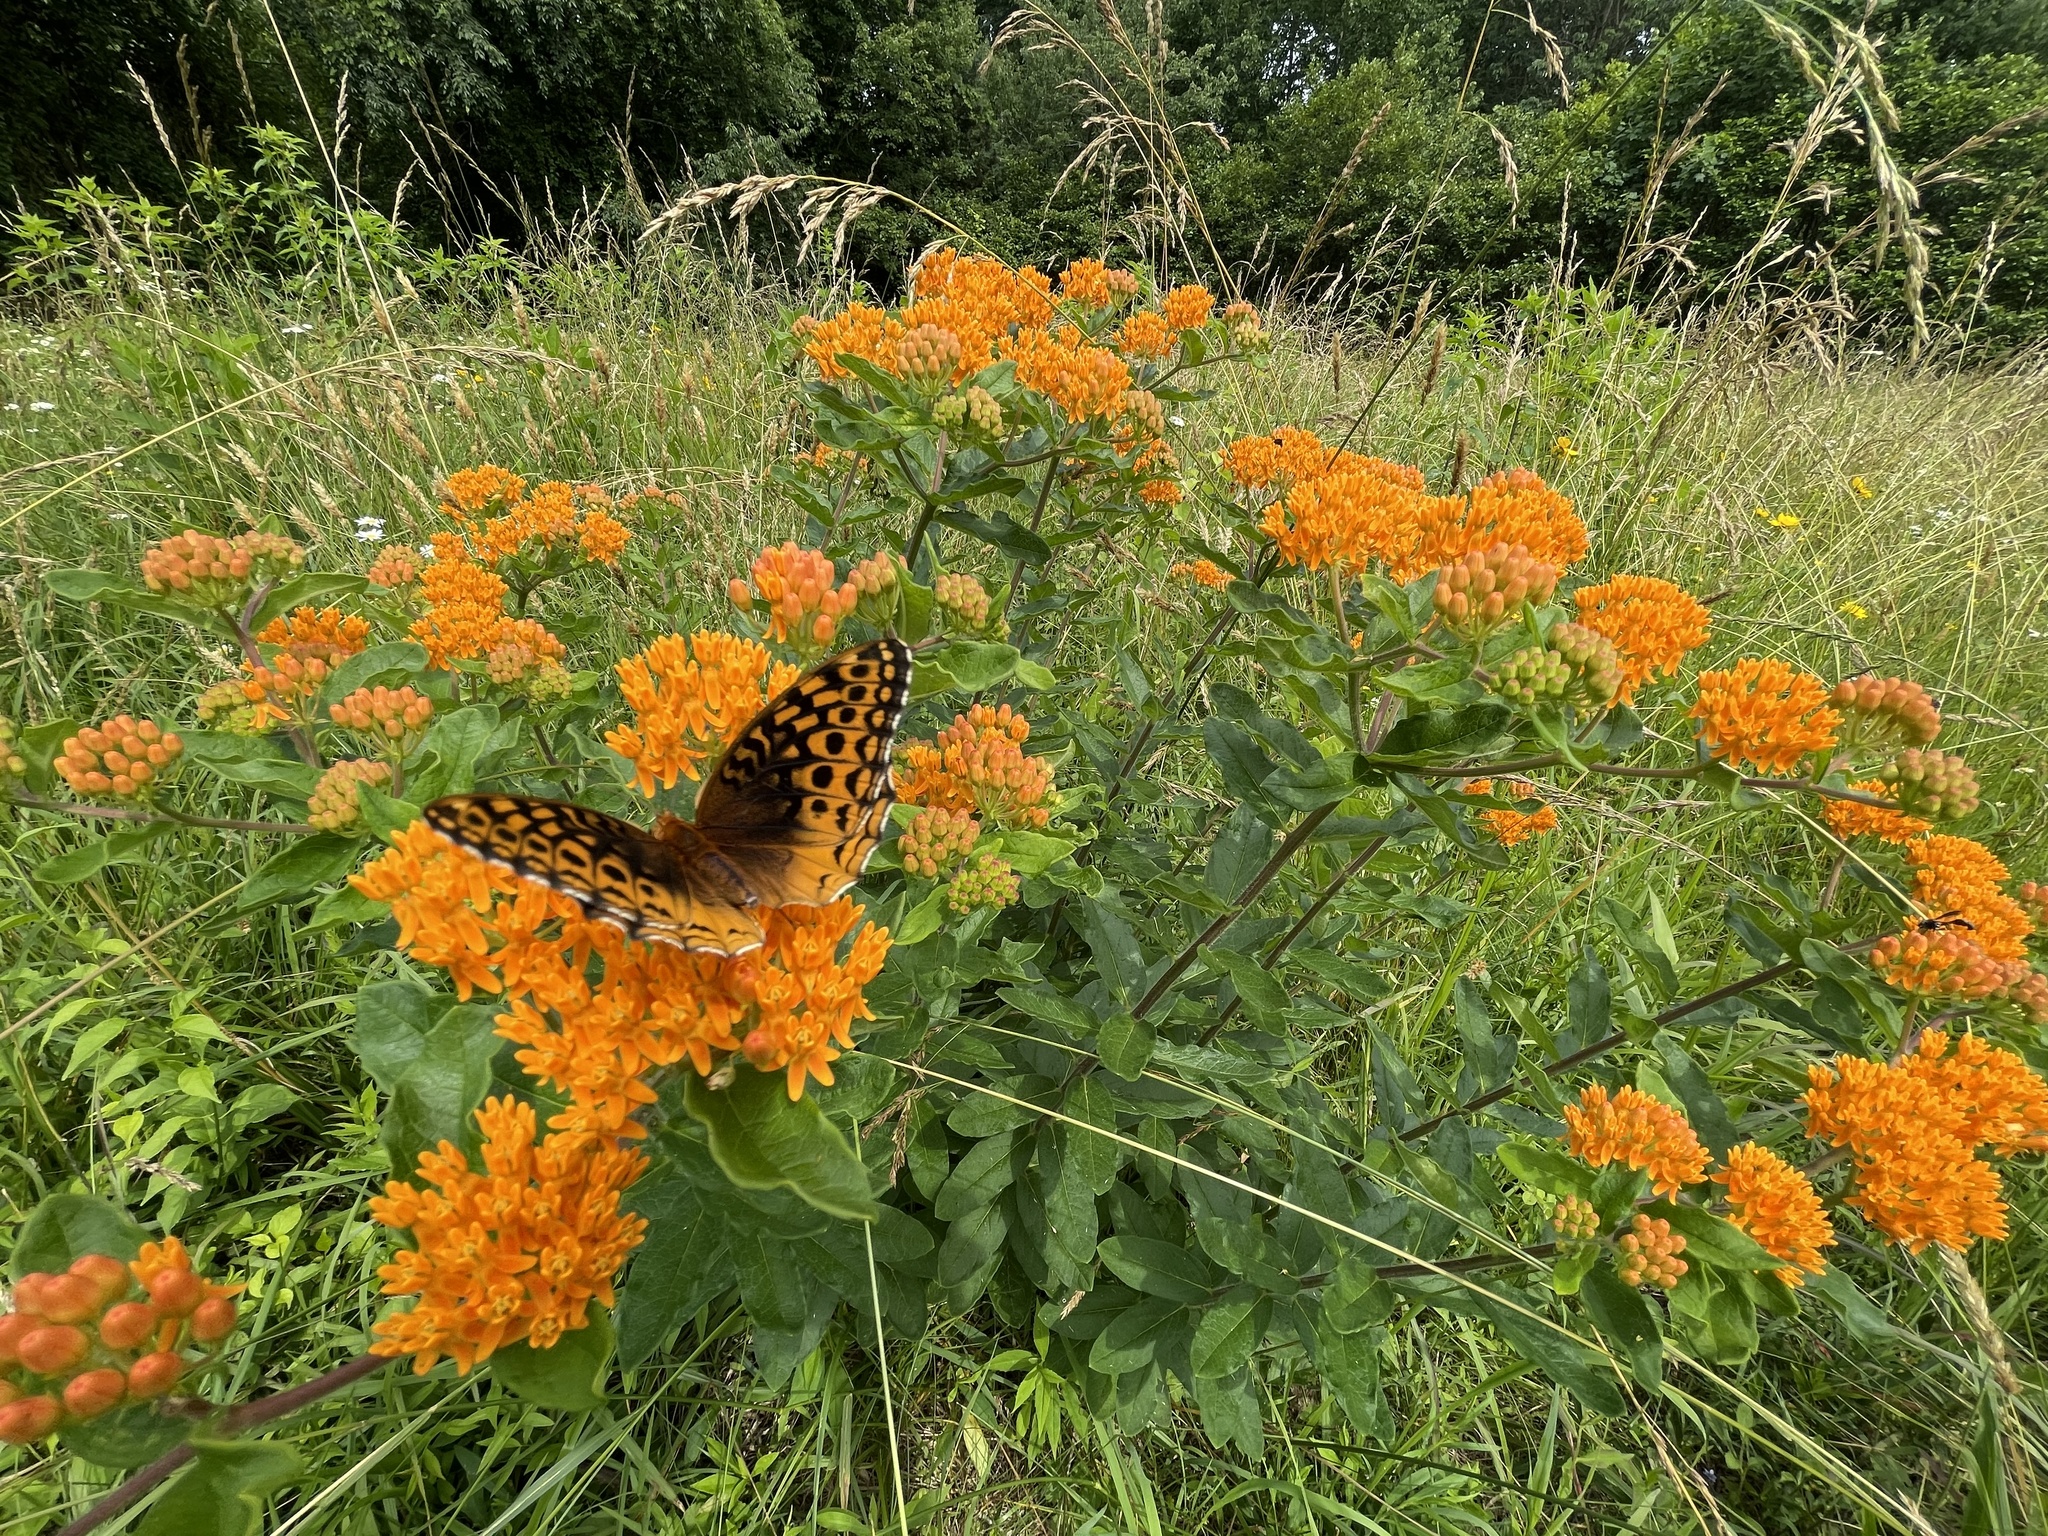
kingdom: Animalia
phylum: Arthropoda
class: Insecta
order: Lepidoptera
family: Nymphalidae
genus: Speyeria
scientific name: Speyeria cybele
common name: Great spangled fritillary
